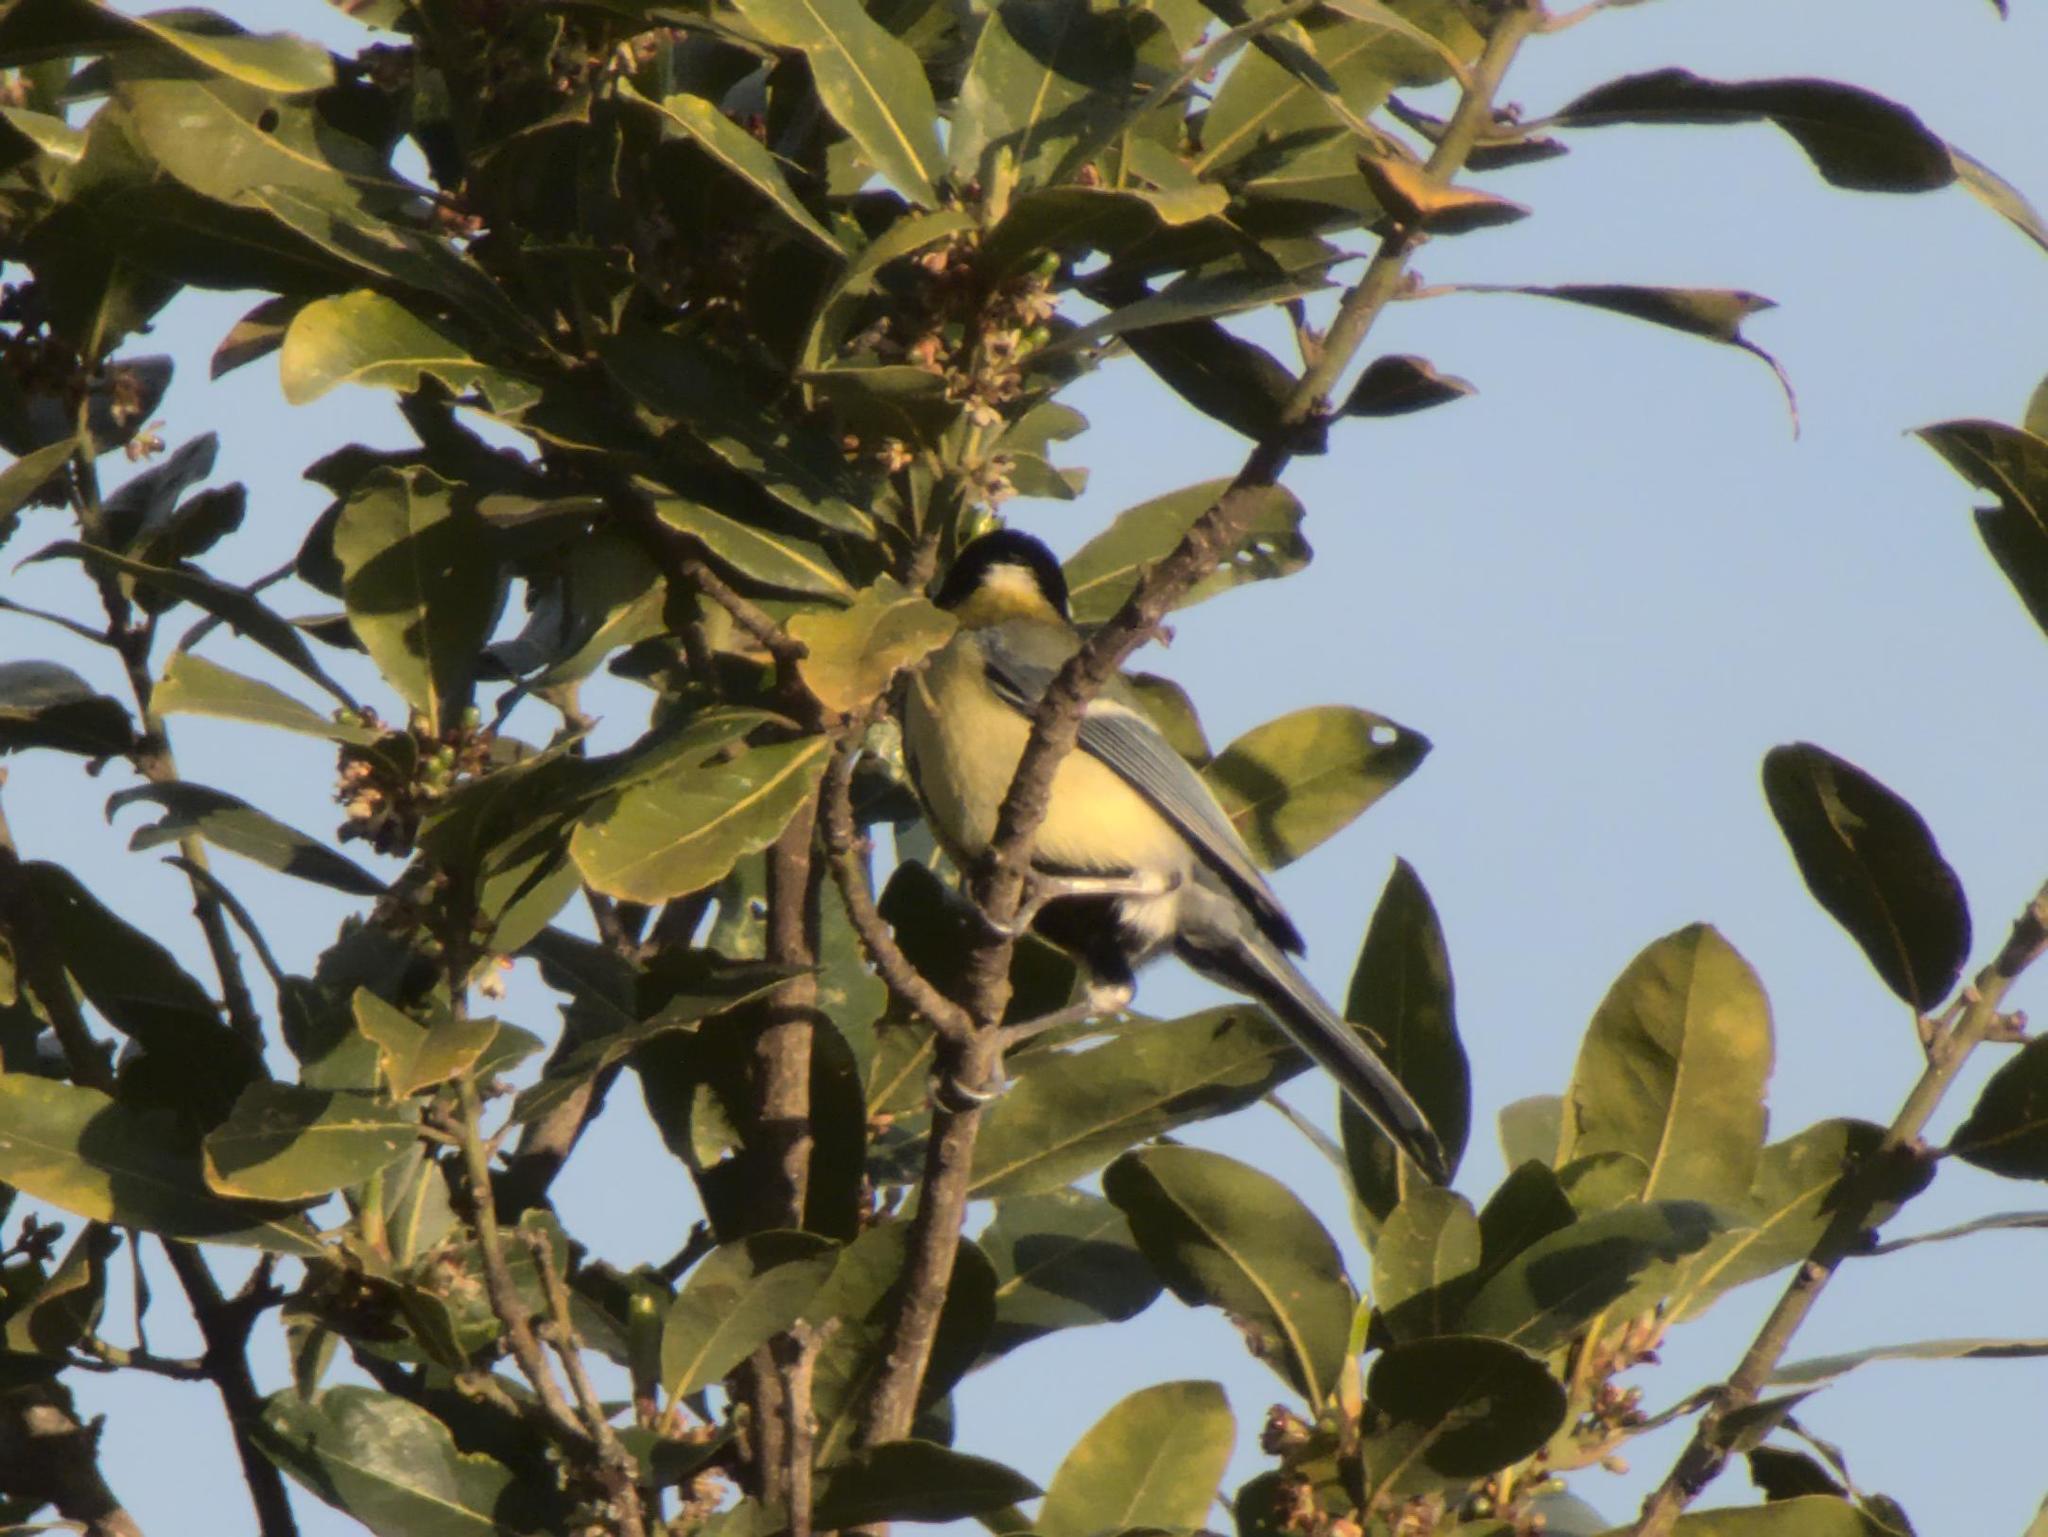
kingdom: Animalia
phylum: Chordata
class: Aves
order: Passeriformes
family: Paridae
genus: Parus
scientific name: Parus major
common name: Great tit
